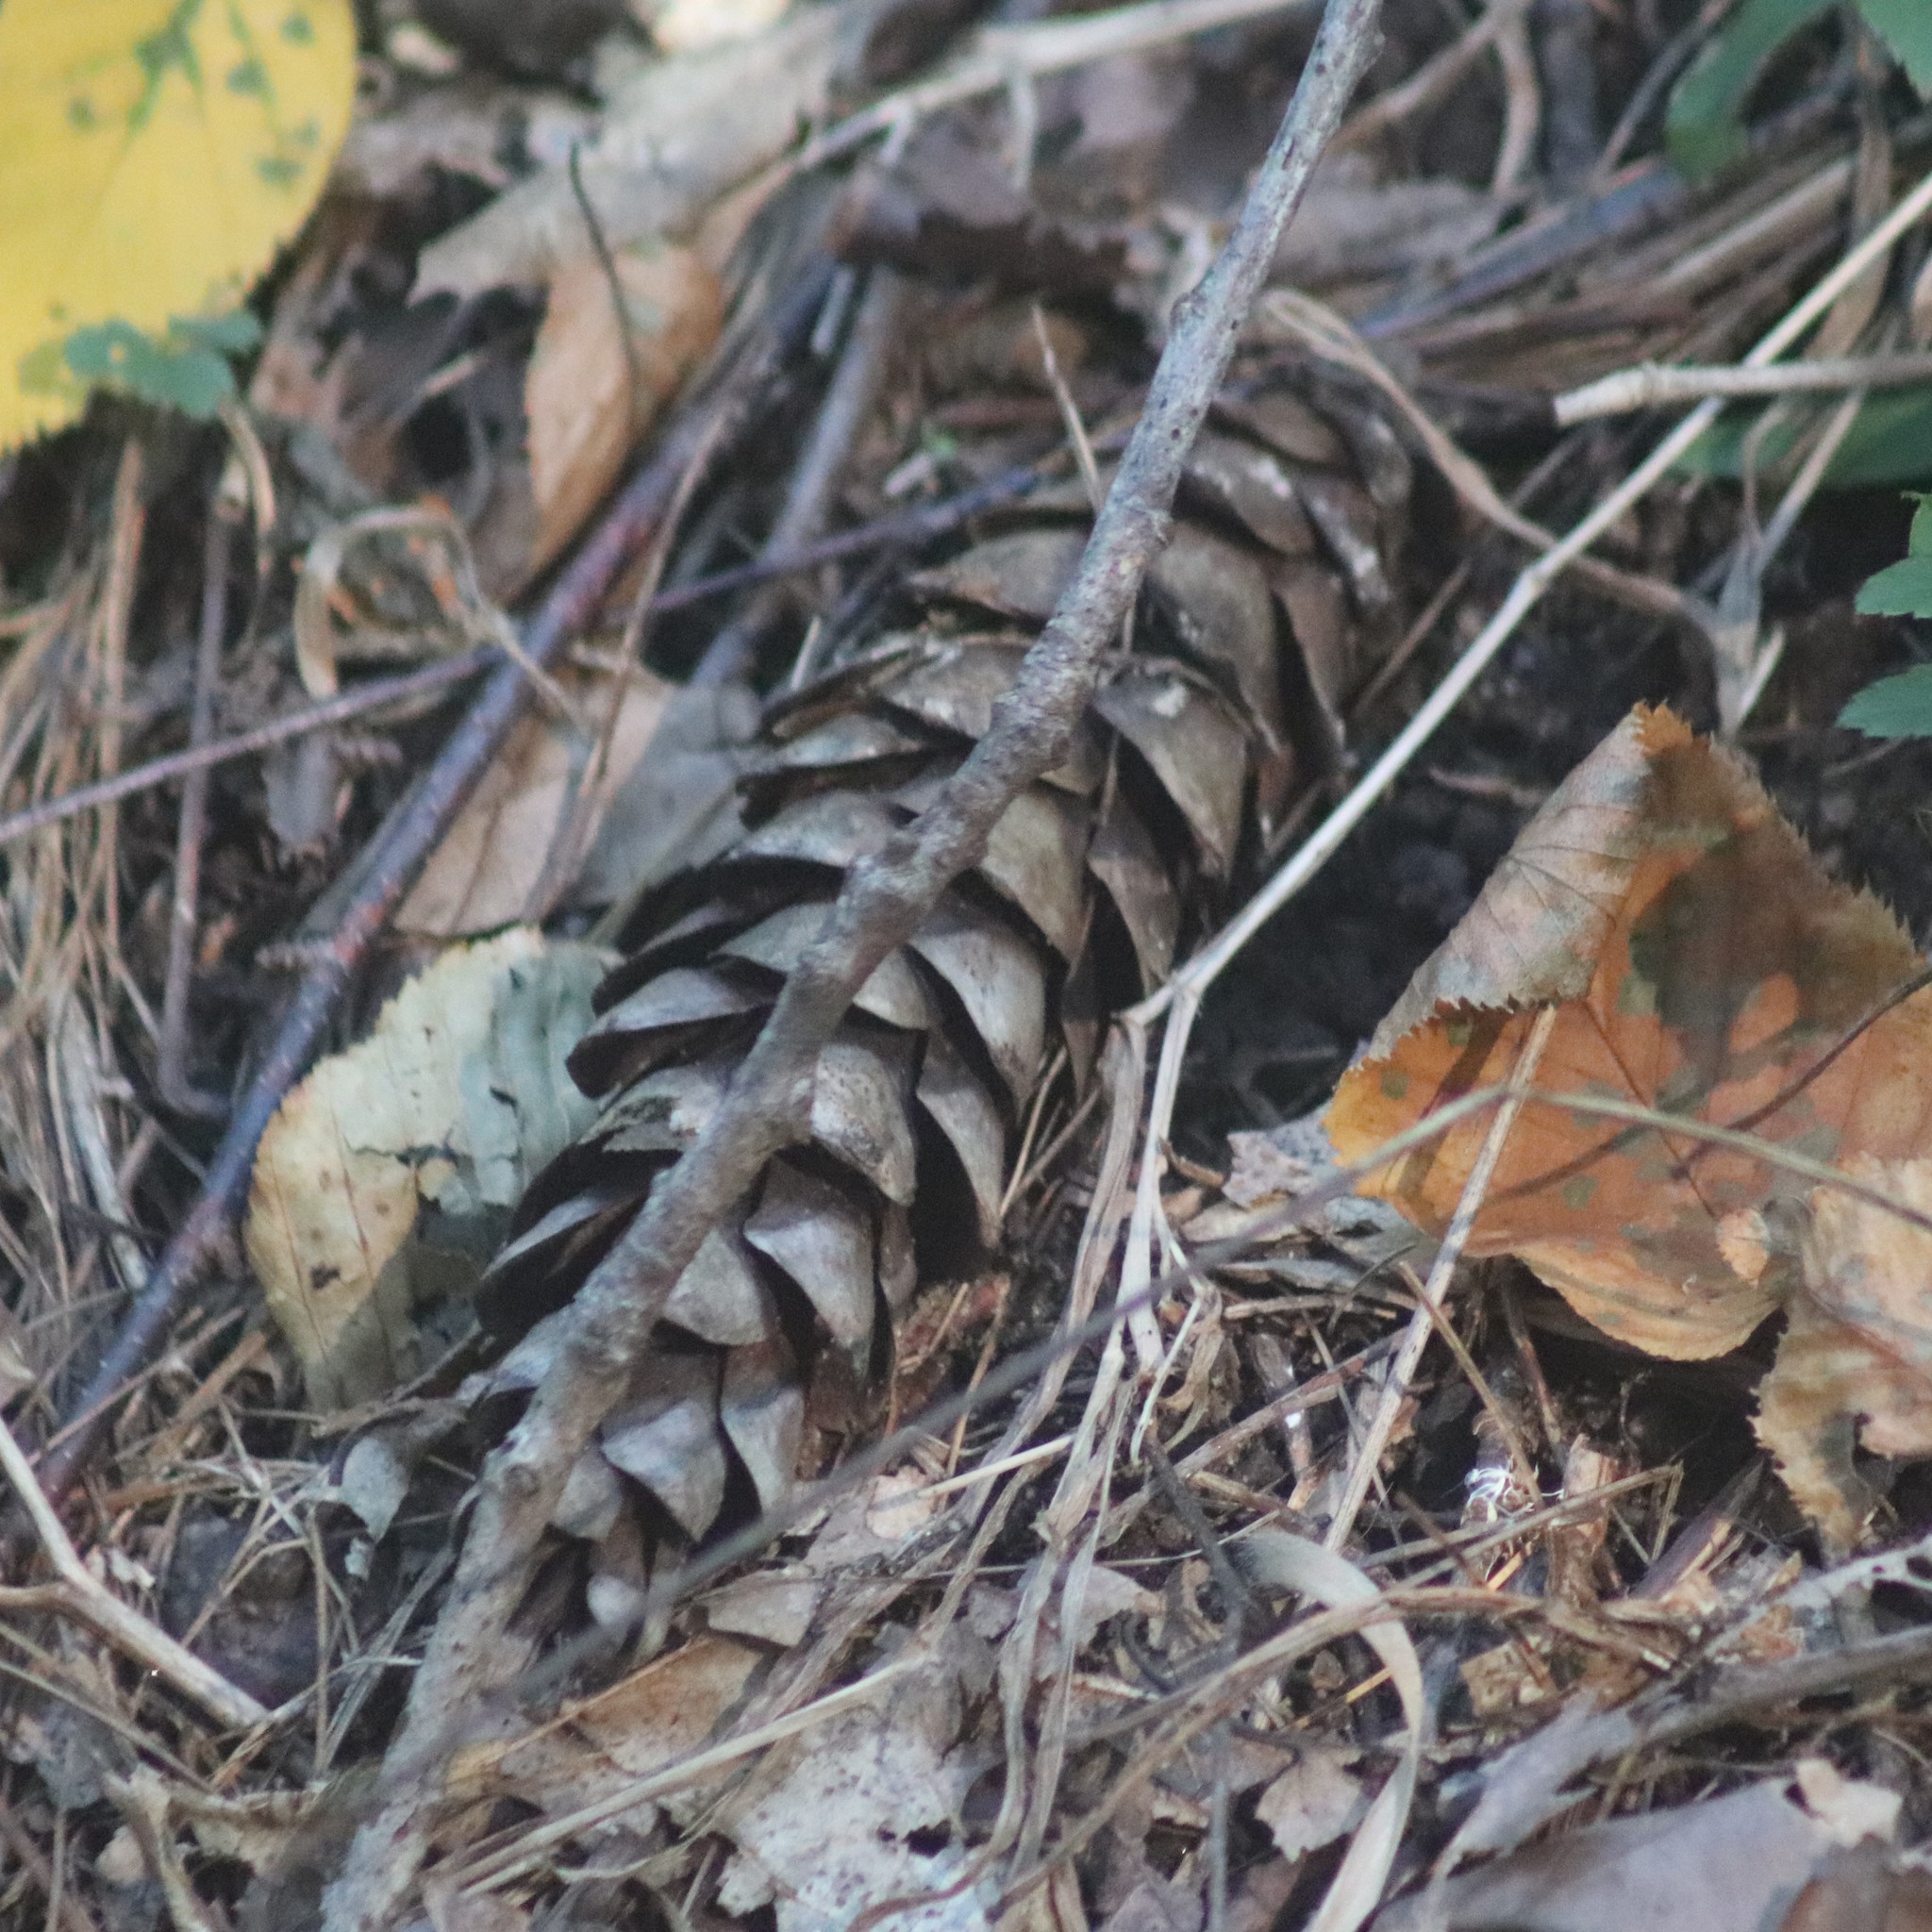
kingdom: Plantae
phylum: Tracheophyta
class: Pinopsida
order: Pinales
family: Pinaceae
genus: Pinus
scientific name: Pinus strobus
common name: Weymouth pine
